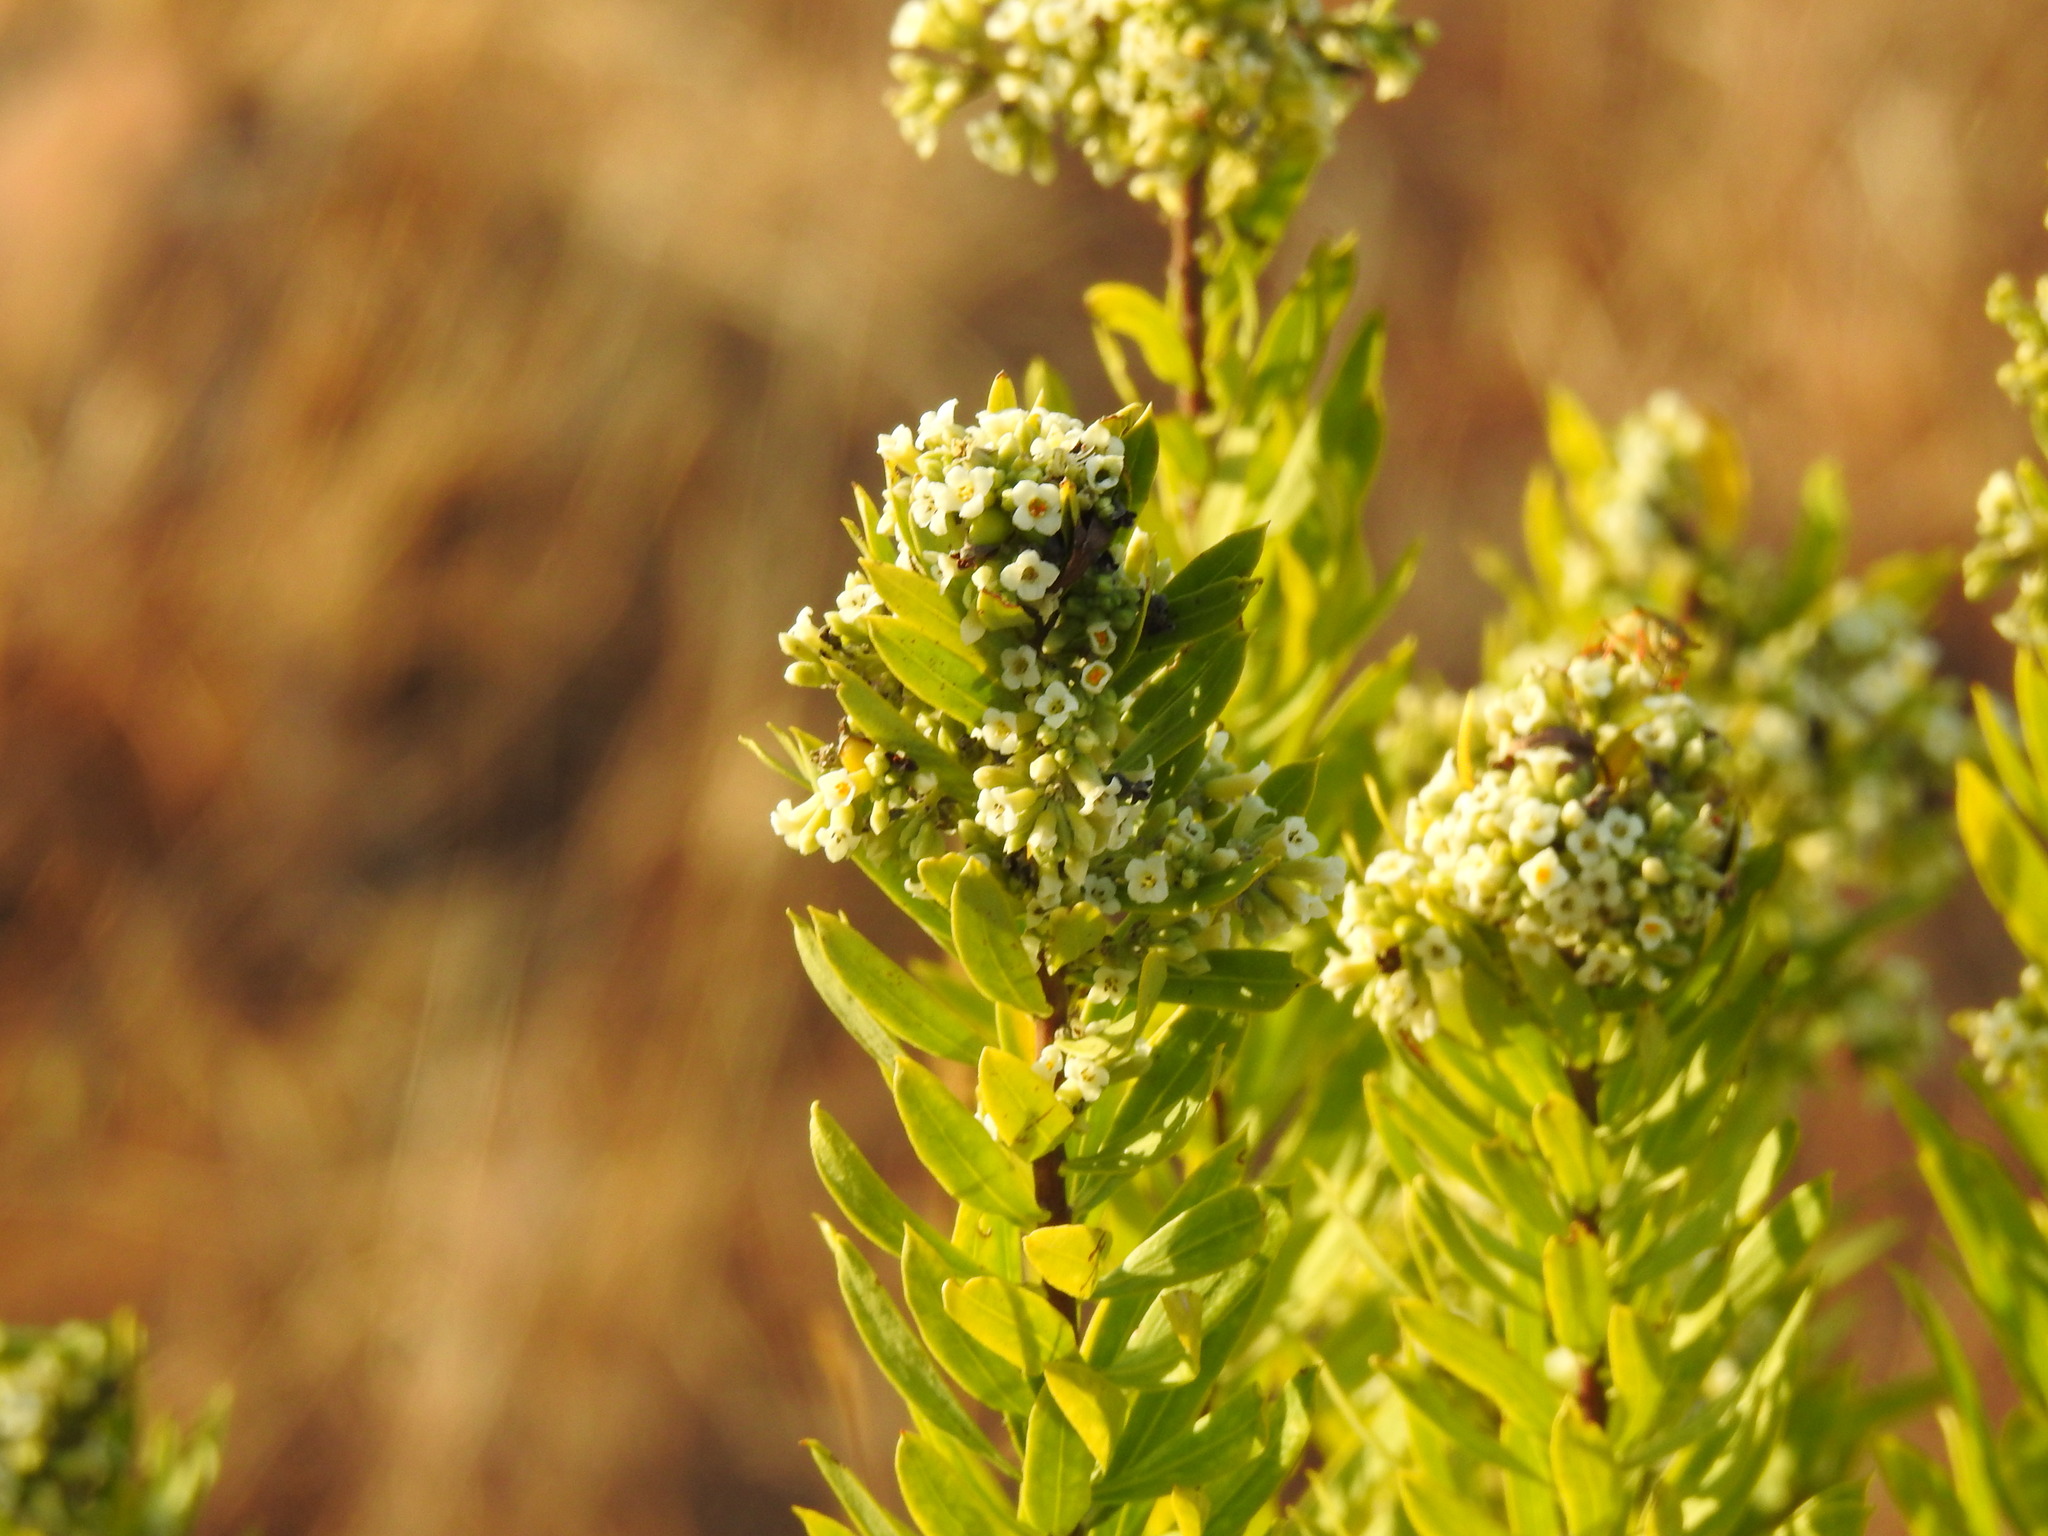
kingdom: Plantae
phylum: Tracheophyta
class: Magnoliopsida
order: Malvales
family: Thymelaeaceae
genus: Daphne
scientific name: Daphne gnidium
